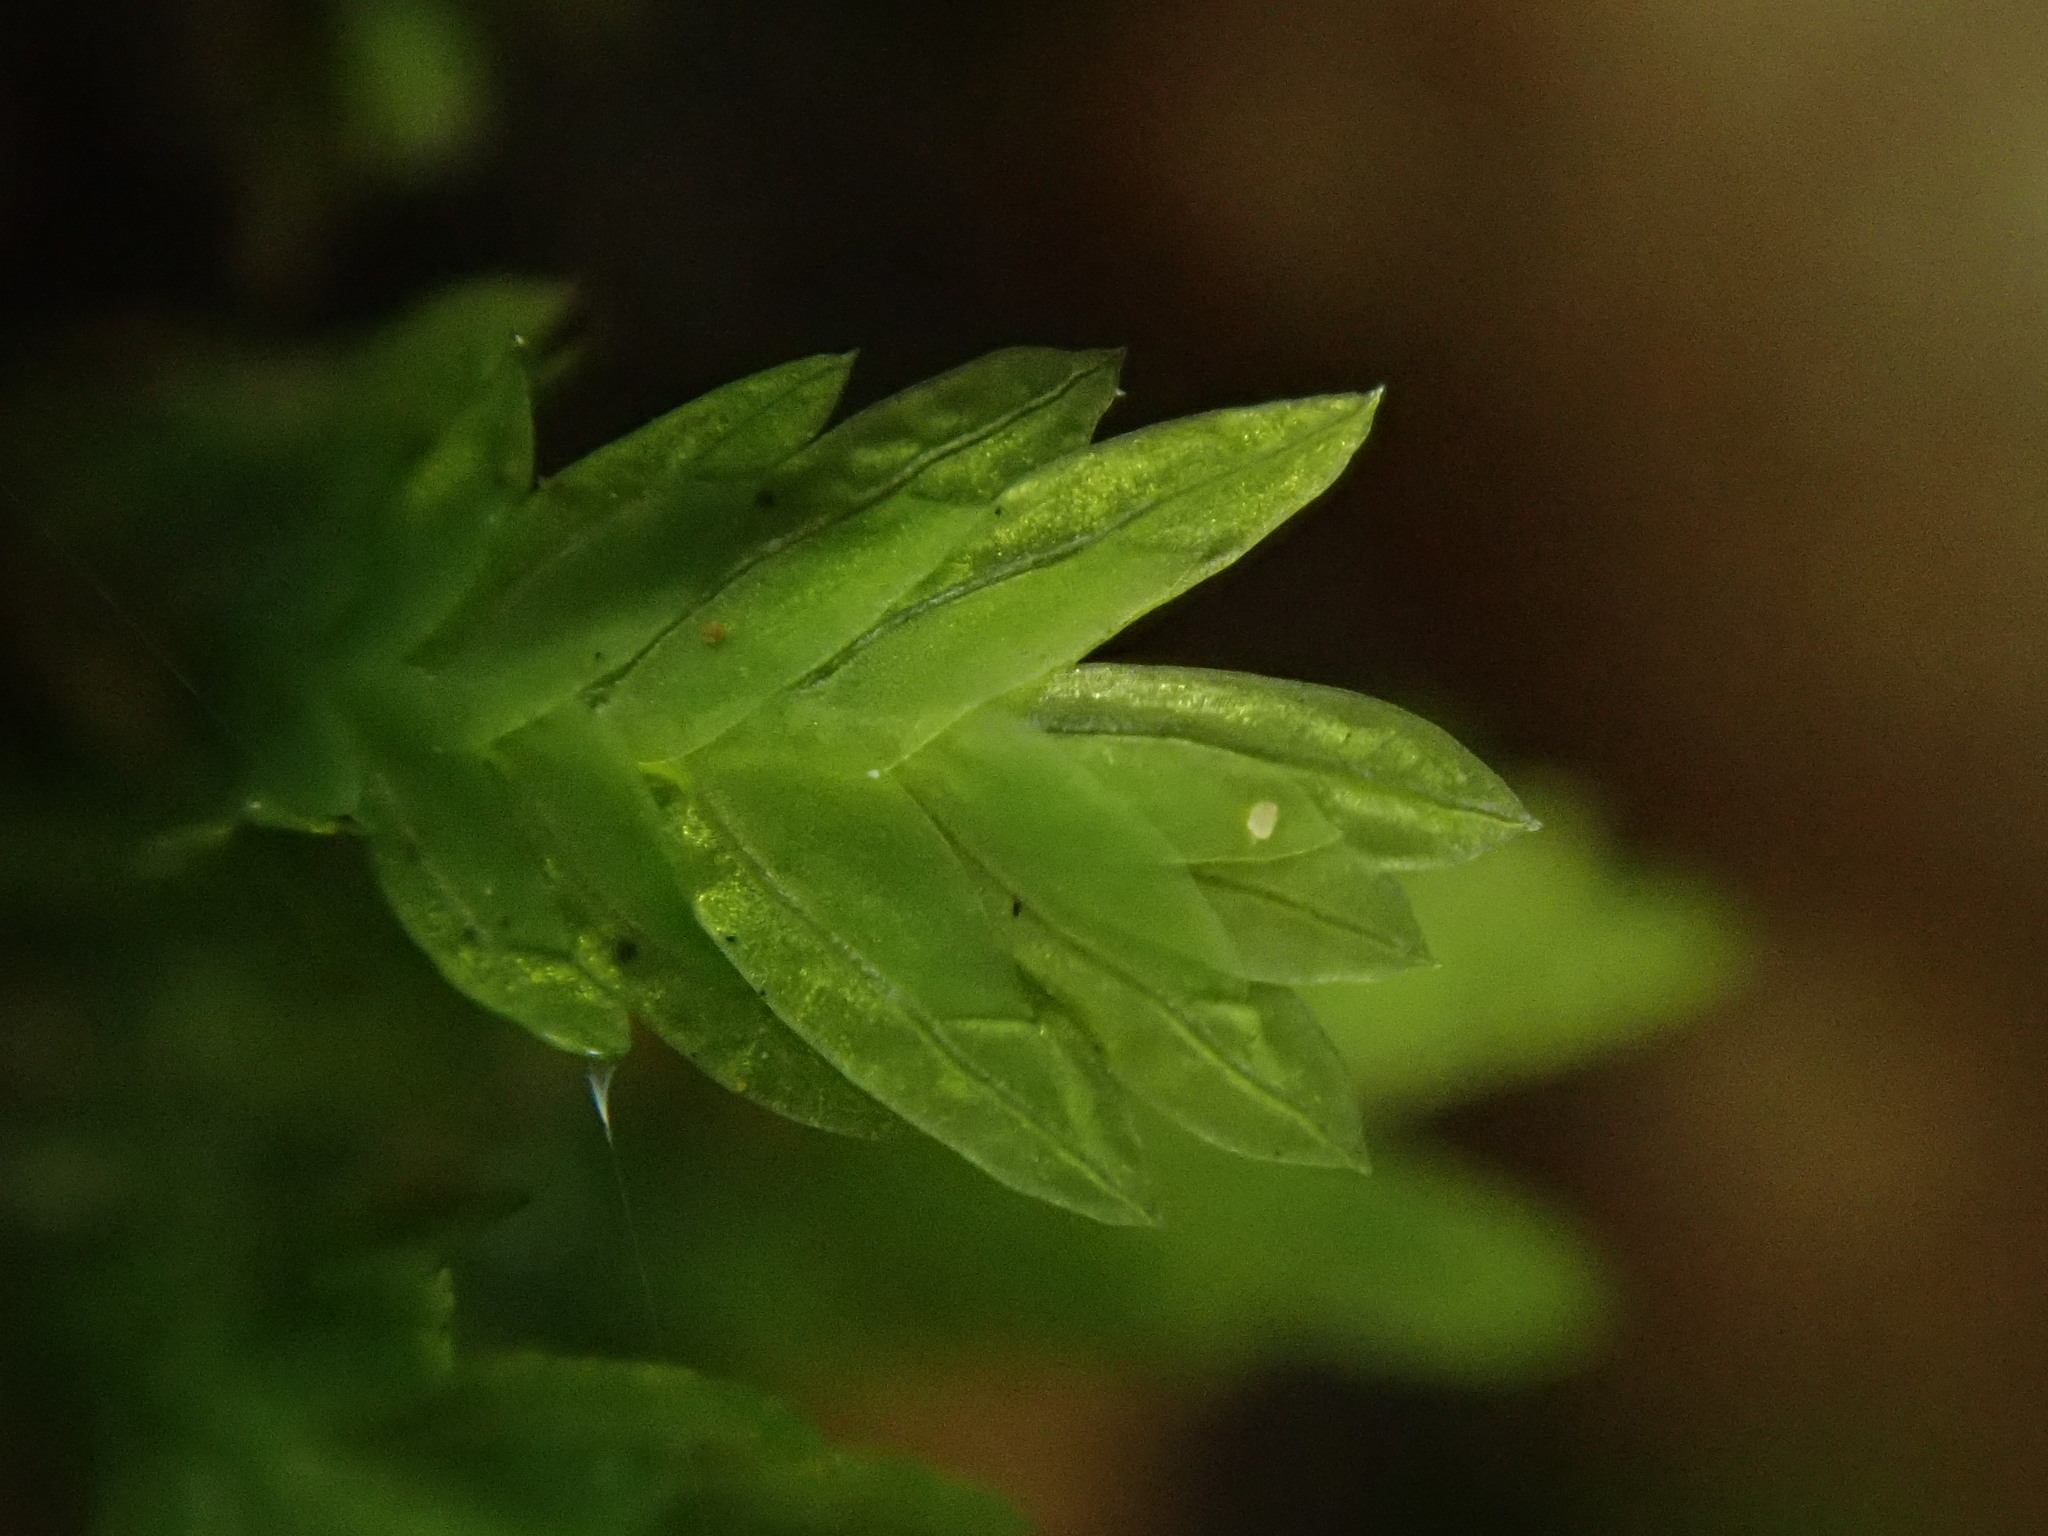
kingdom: Plantae
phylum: Bryophyta
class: Bryopsida
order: Dicranales
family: Fissidentaceae
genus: Fissidens
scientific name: Fissidens taxifolius
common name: Yew-leaved pocket moss
